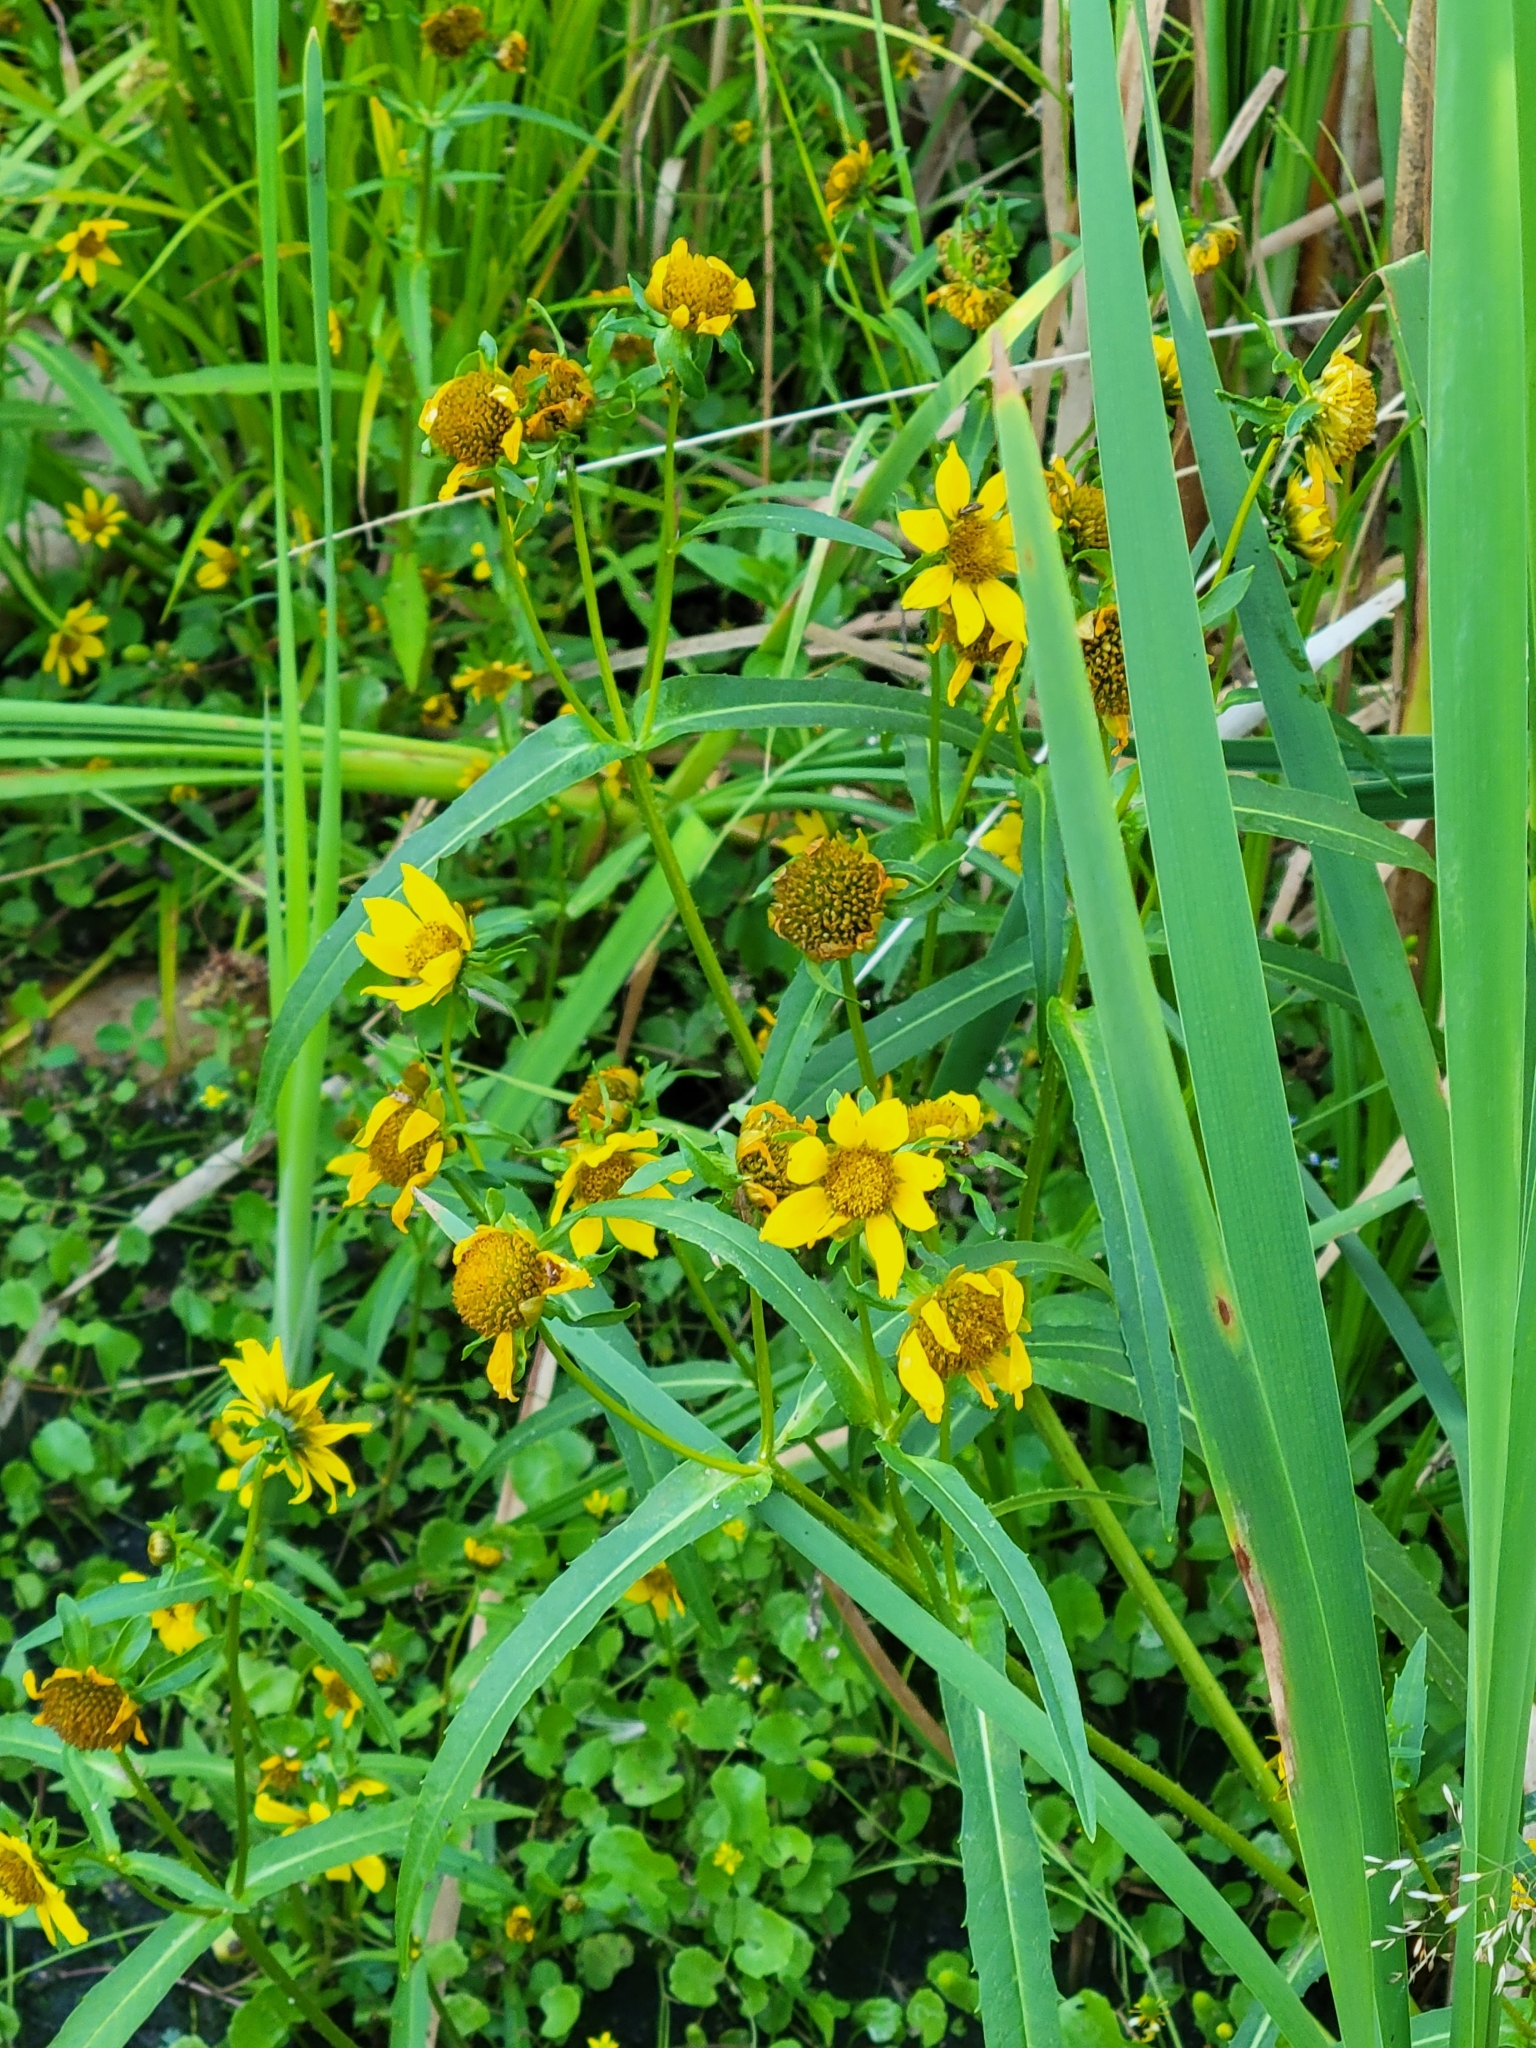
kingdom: Plantae
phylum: Tracheophyta
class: Magnoliopsida
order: Asterales
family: Asteraceae
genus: Bidens
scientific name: Bidens cernua
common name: Nodding bur-marigold
